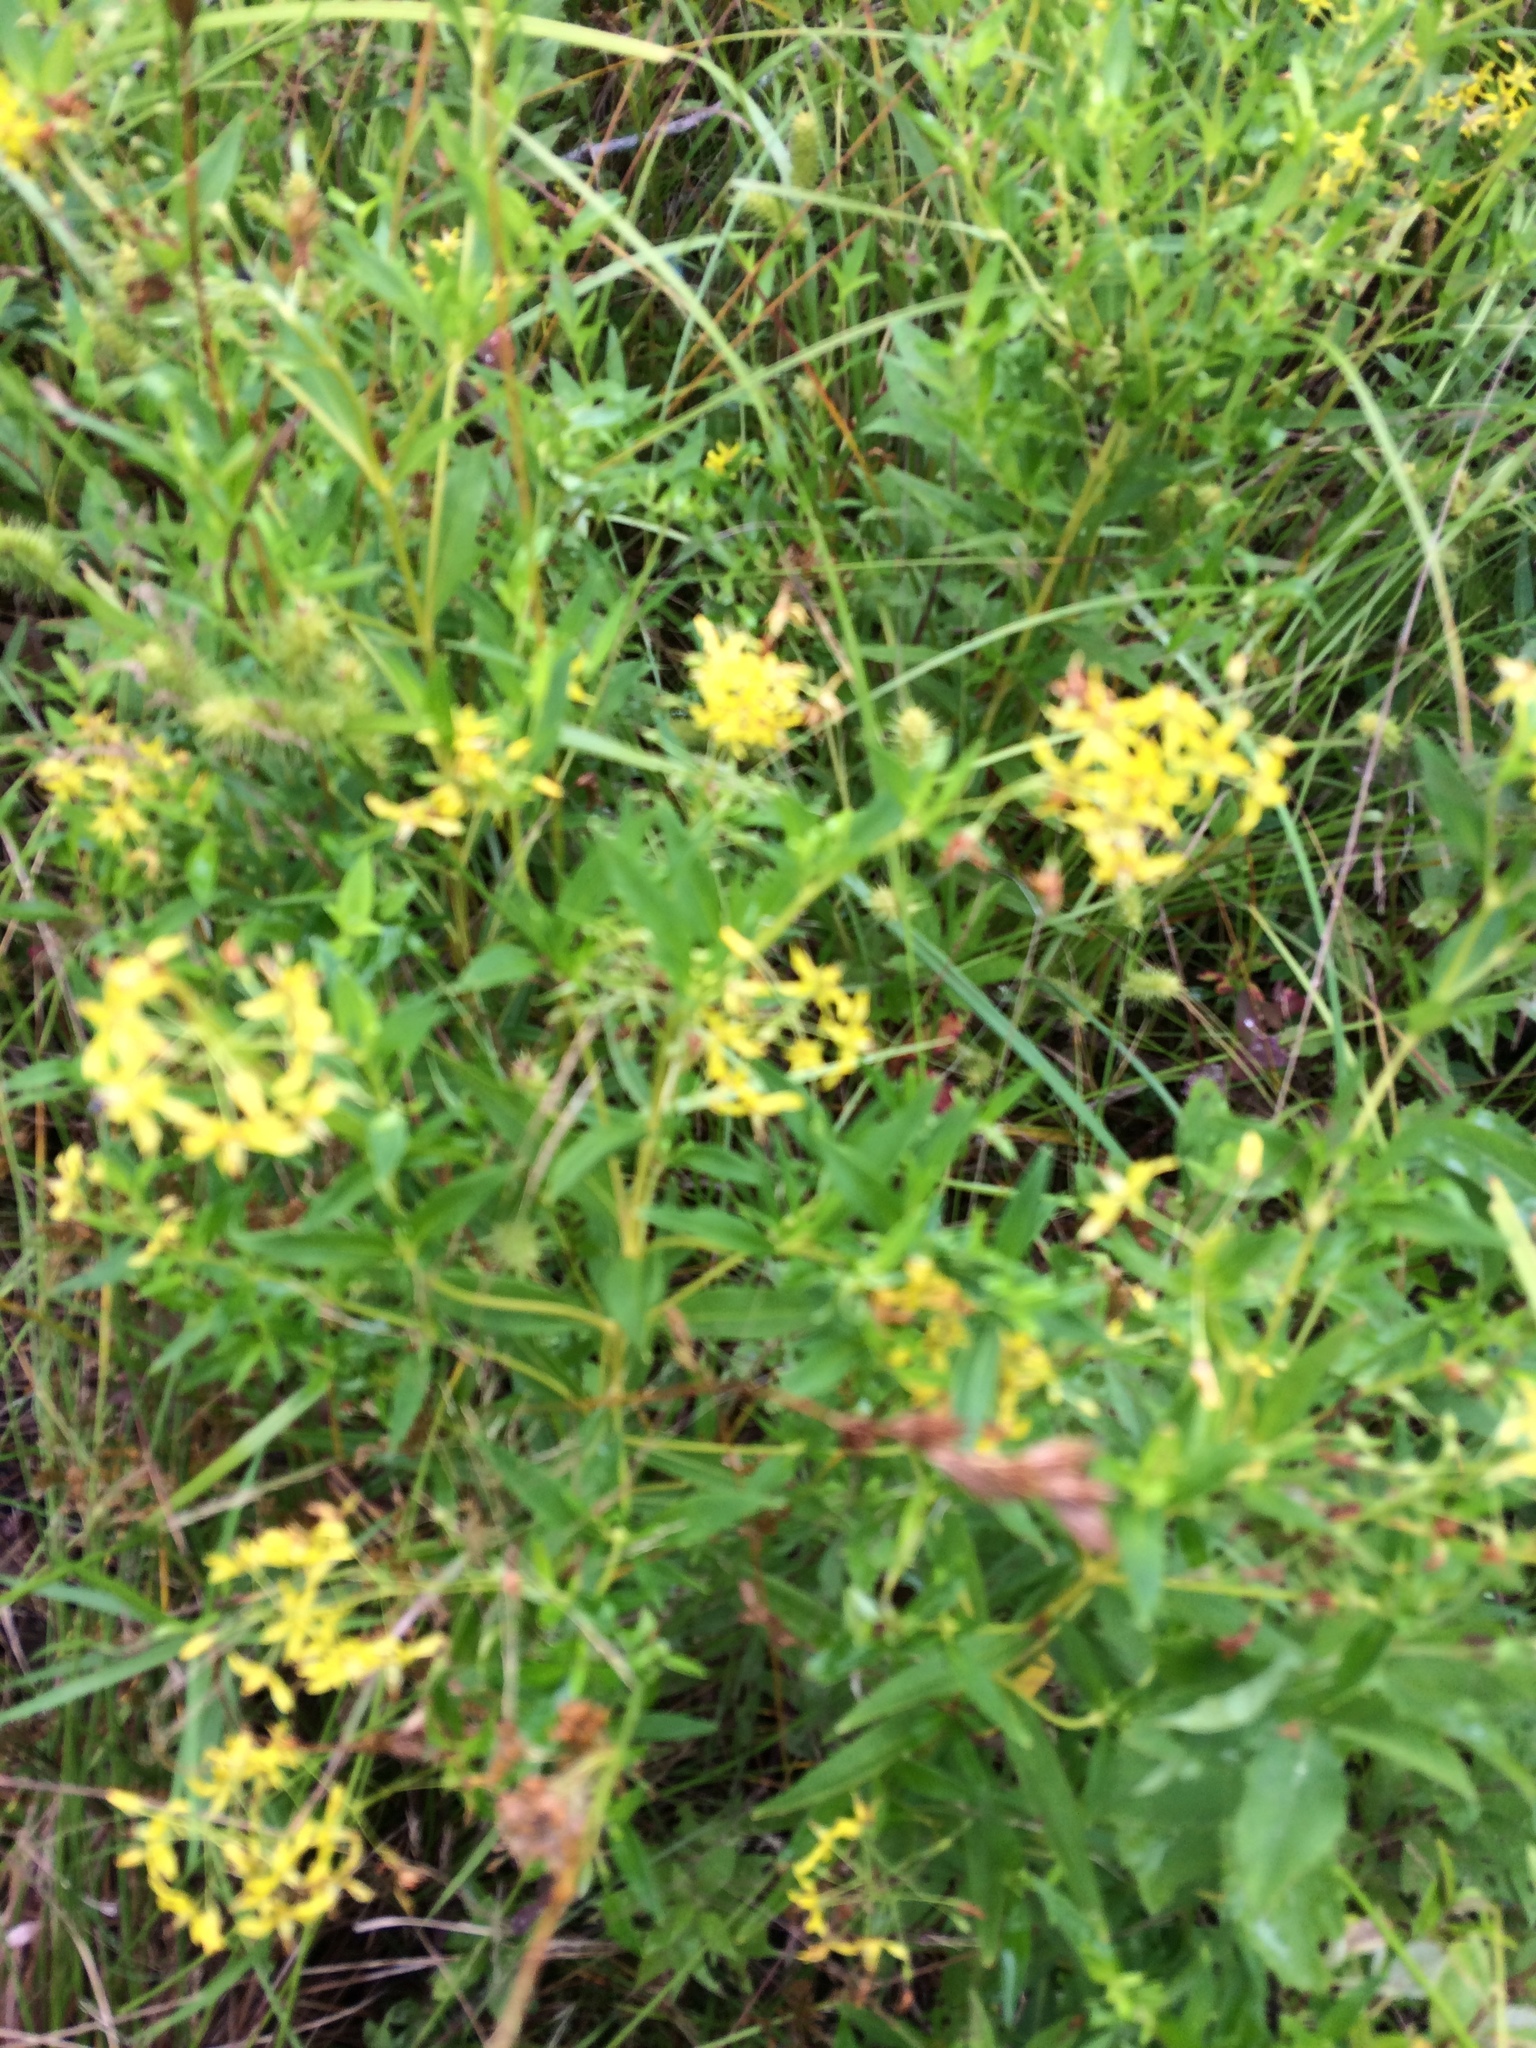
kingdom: Plantae
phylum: Tracheophyta
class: Magnoliopsida
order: Ericales
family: Primulaceae
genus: Lysimachia
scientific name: Lysimachia terrestris
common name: Lake loosestrife
